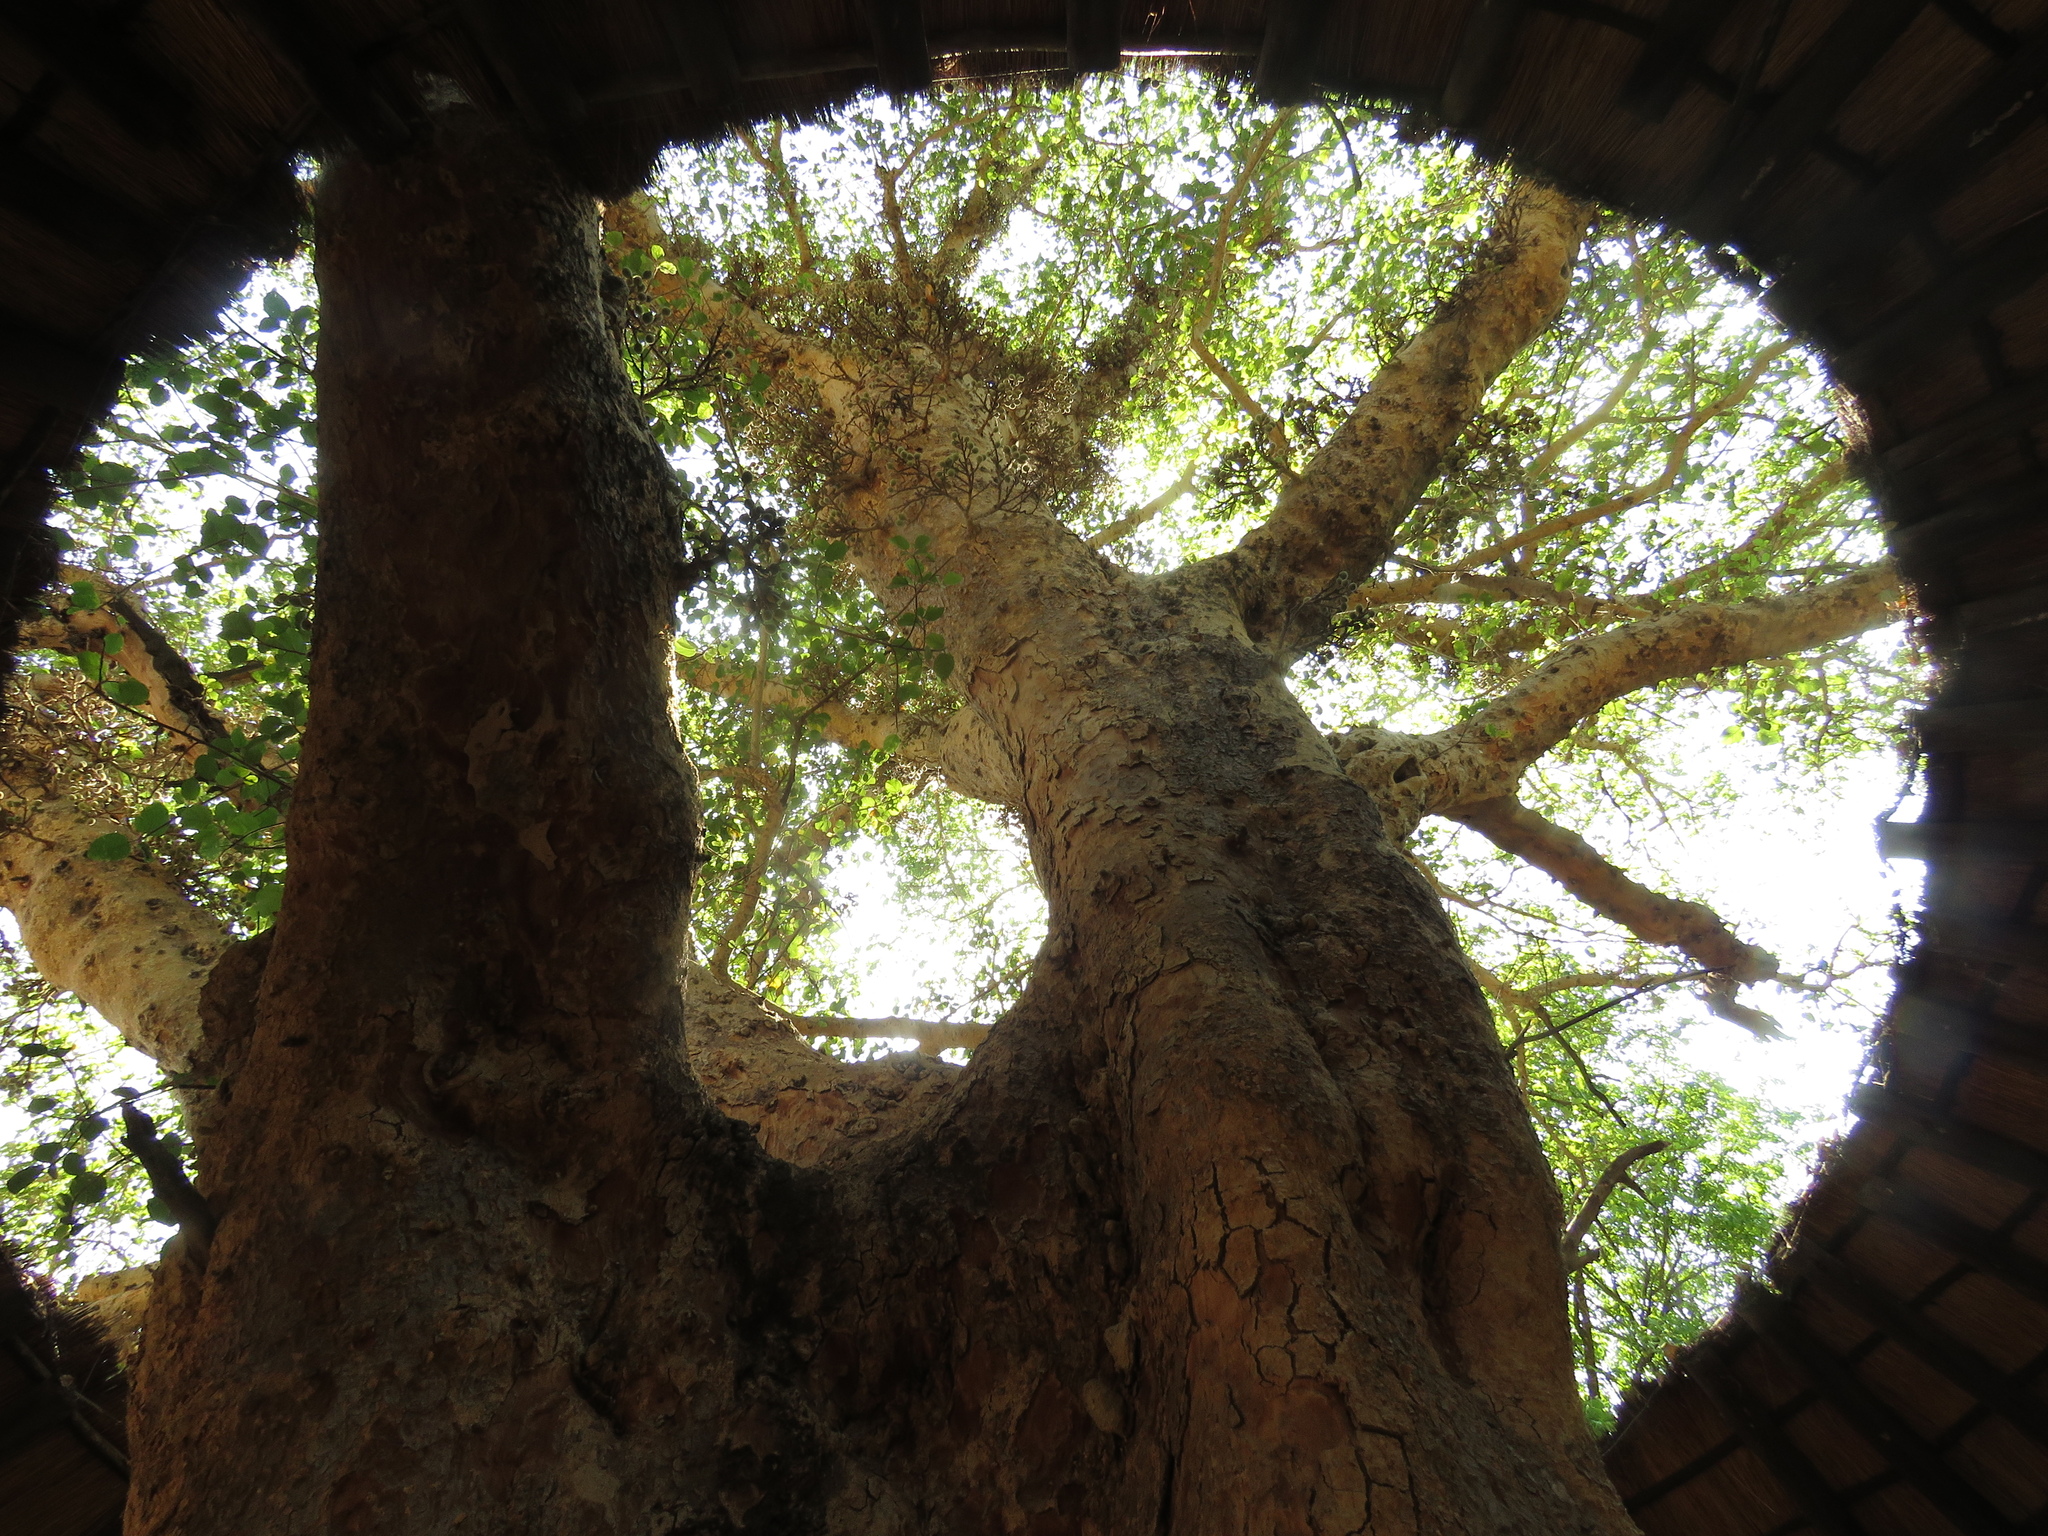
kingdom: Plantae
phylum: Tracheophyta
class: Magnoliopsida
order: Rosales
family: Moraceae
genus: Ficus
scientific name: Ficus sycomorus
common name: Sycomore
